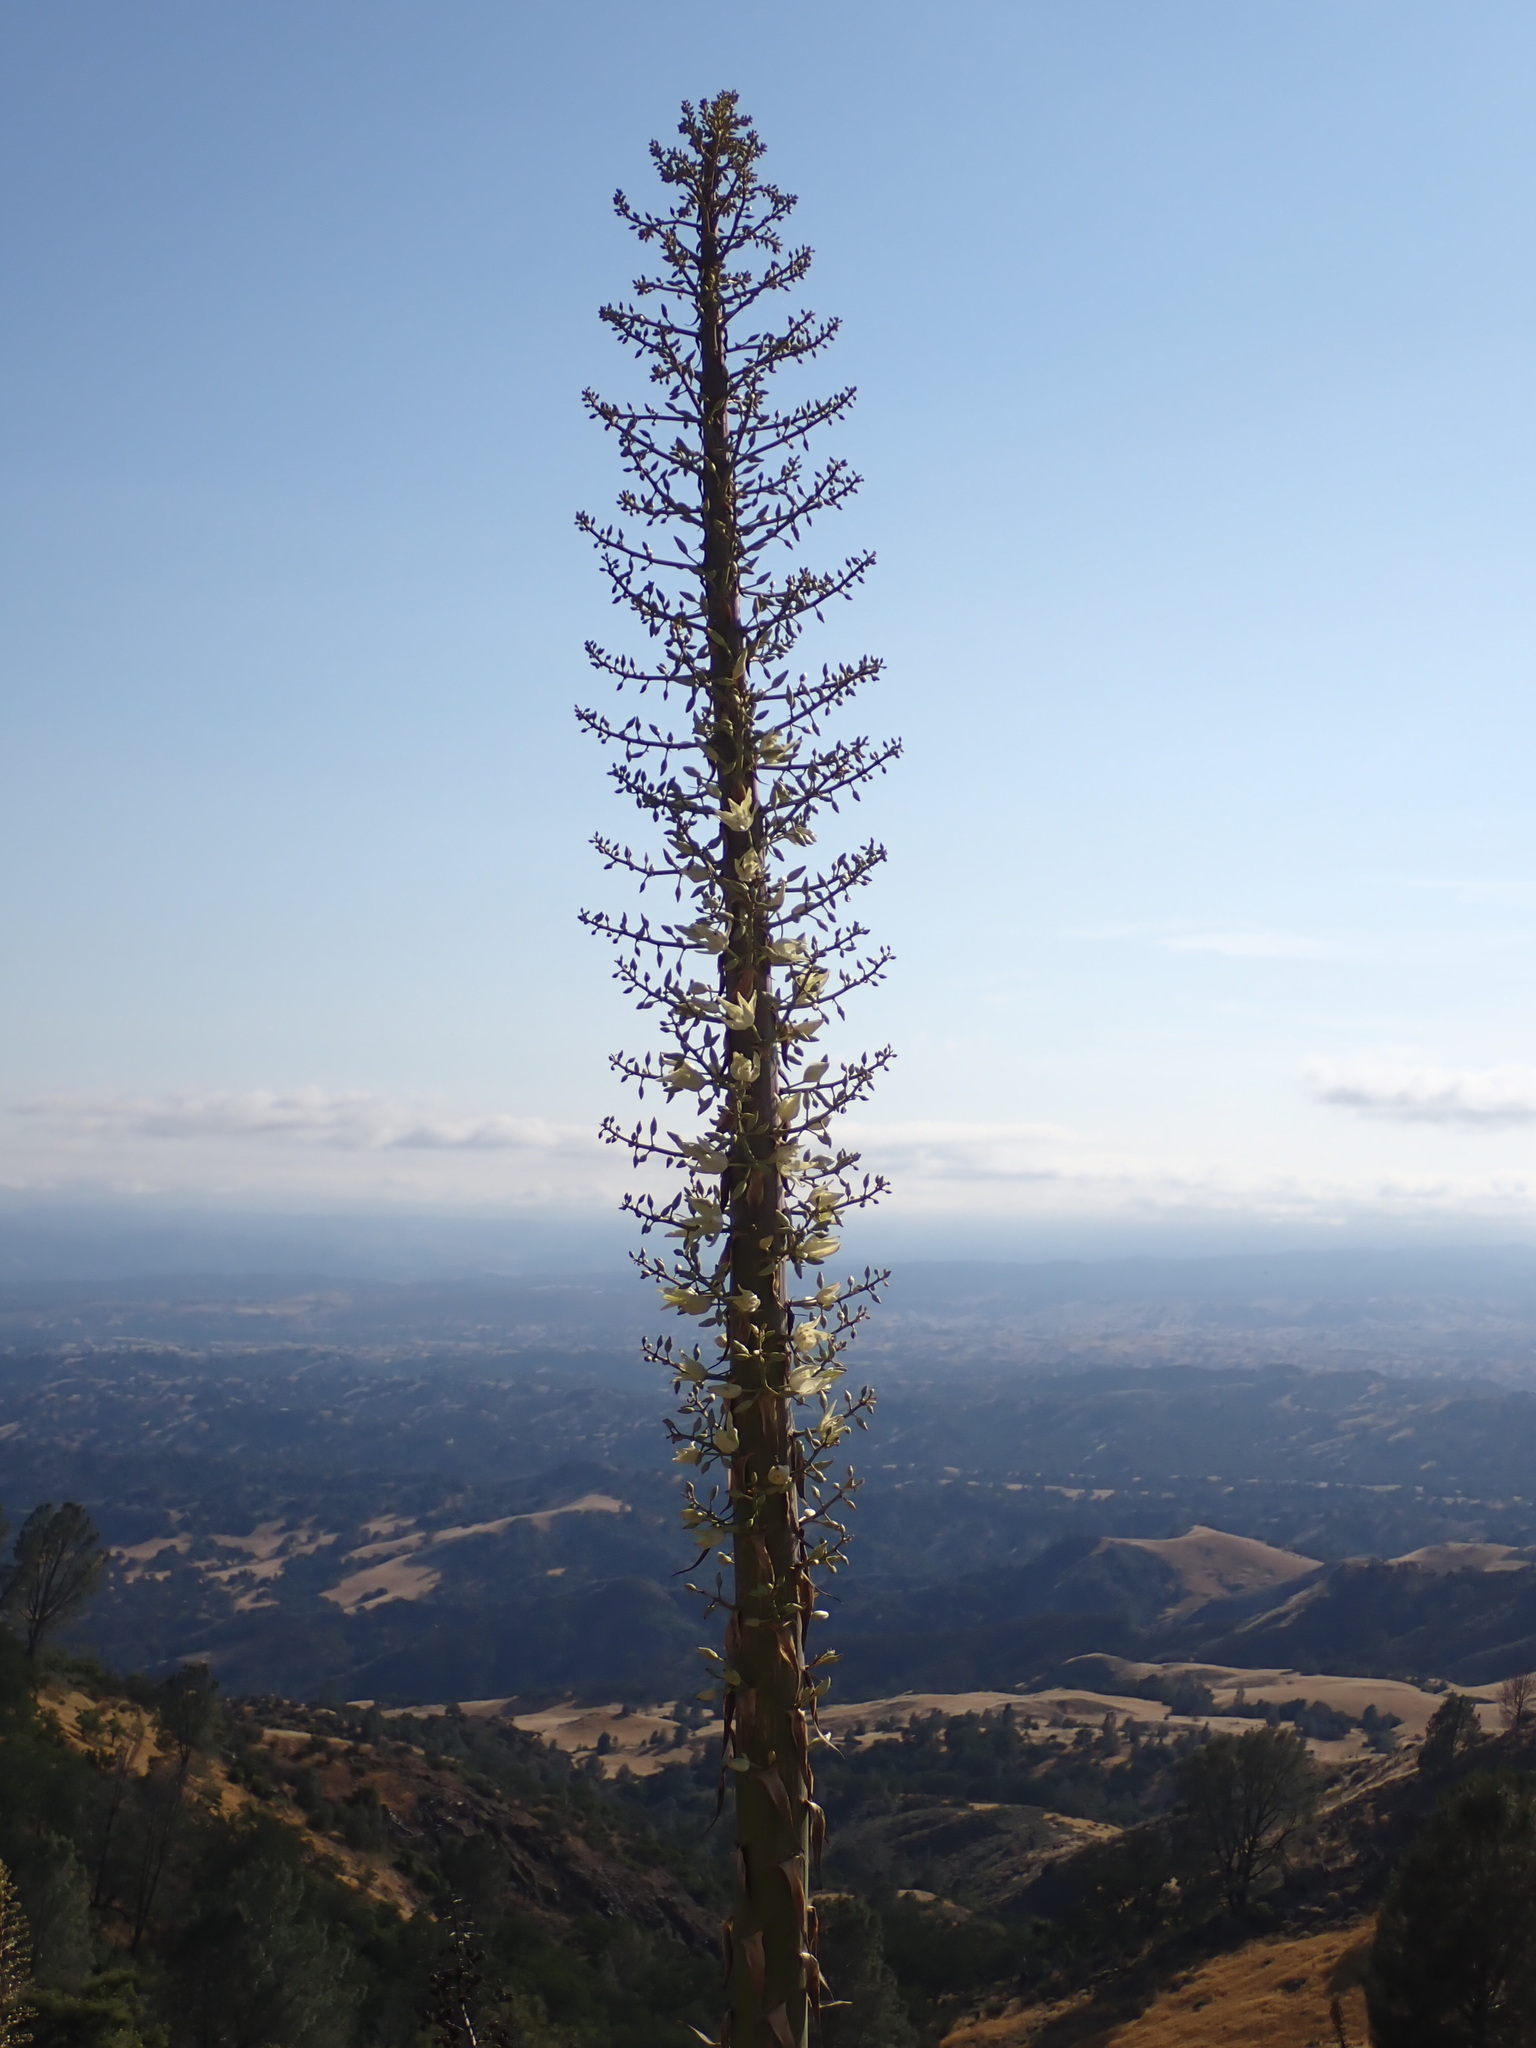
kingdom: Plantae
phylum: Tracheophyta
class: Liliopsida
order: Asparagales
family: Asparagaceae
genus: Hesperoyucca
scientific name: Hesperoyucca whipplei
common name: Our lord's-candle
